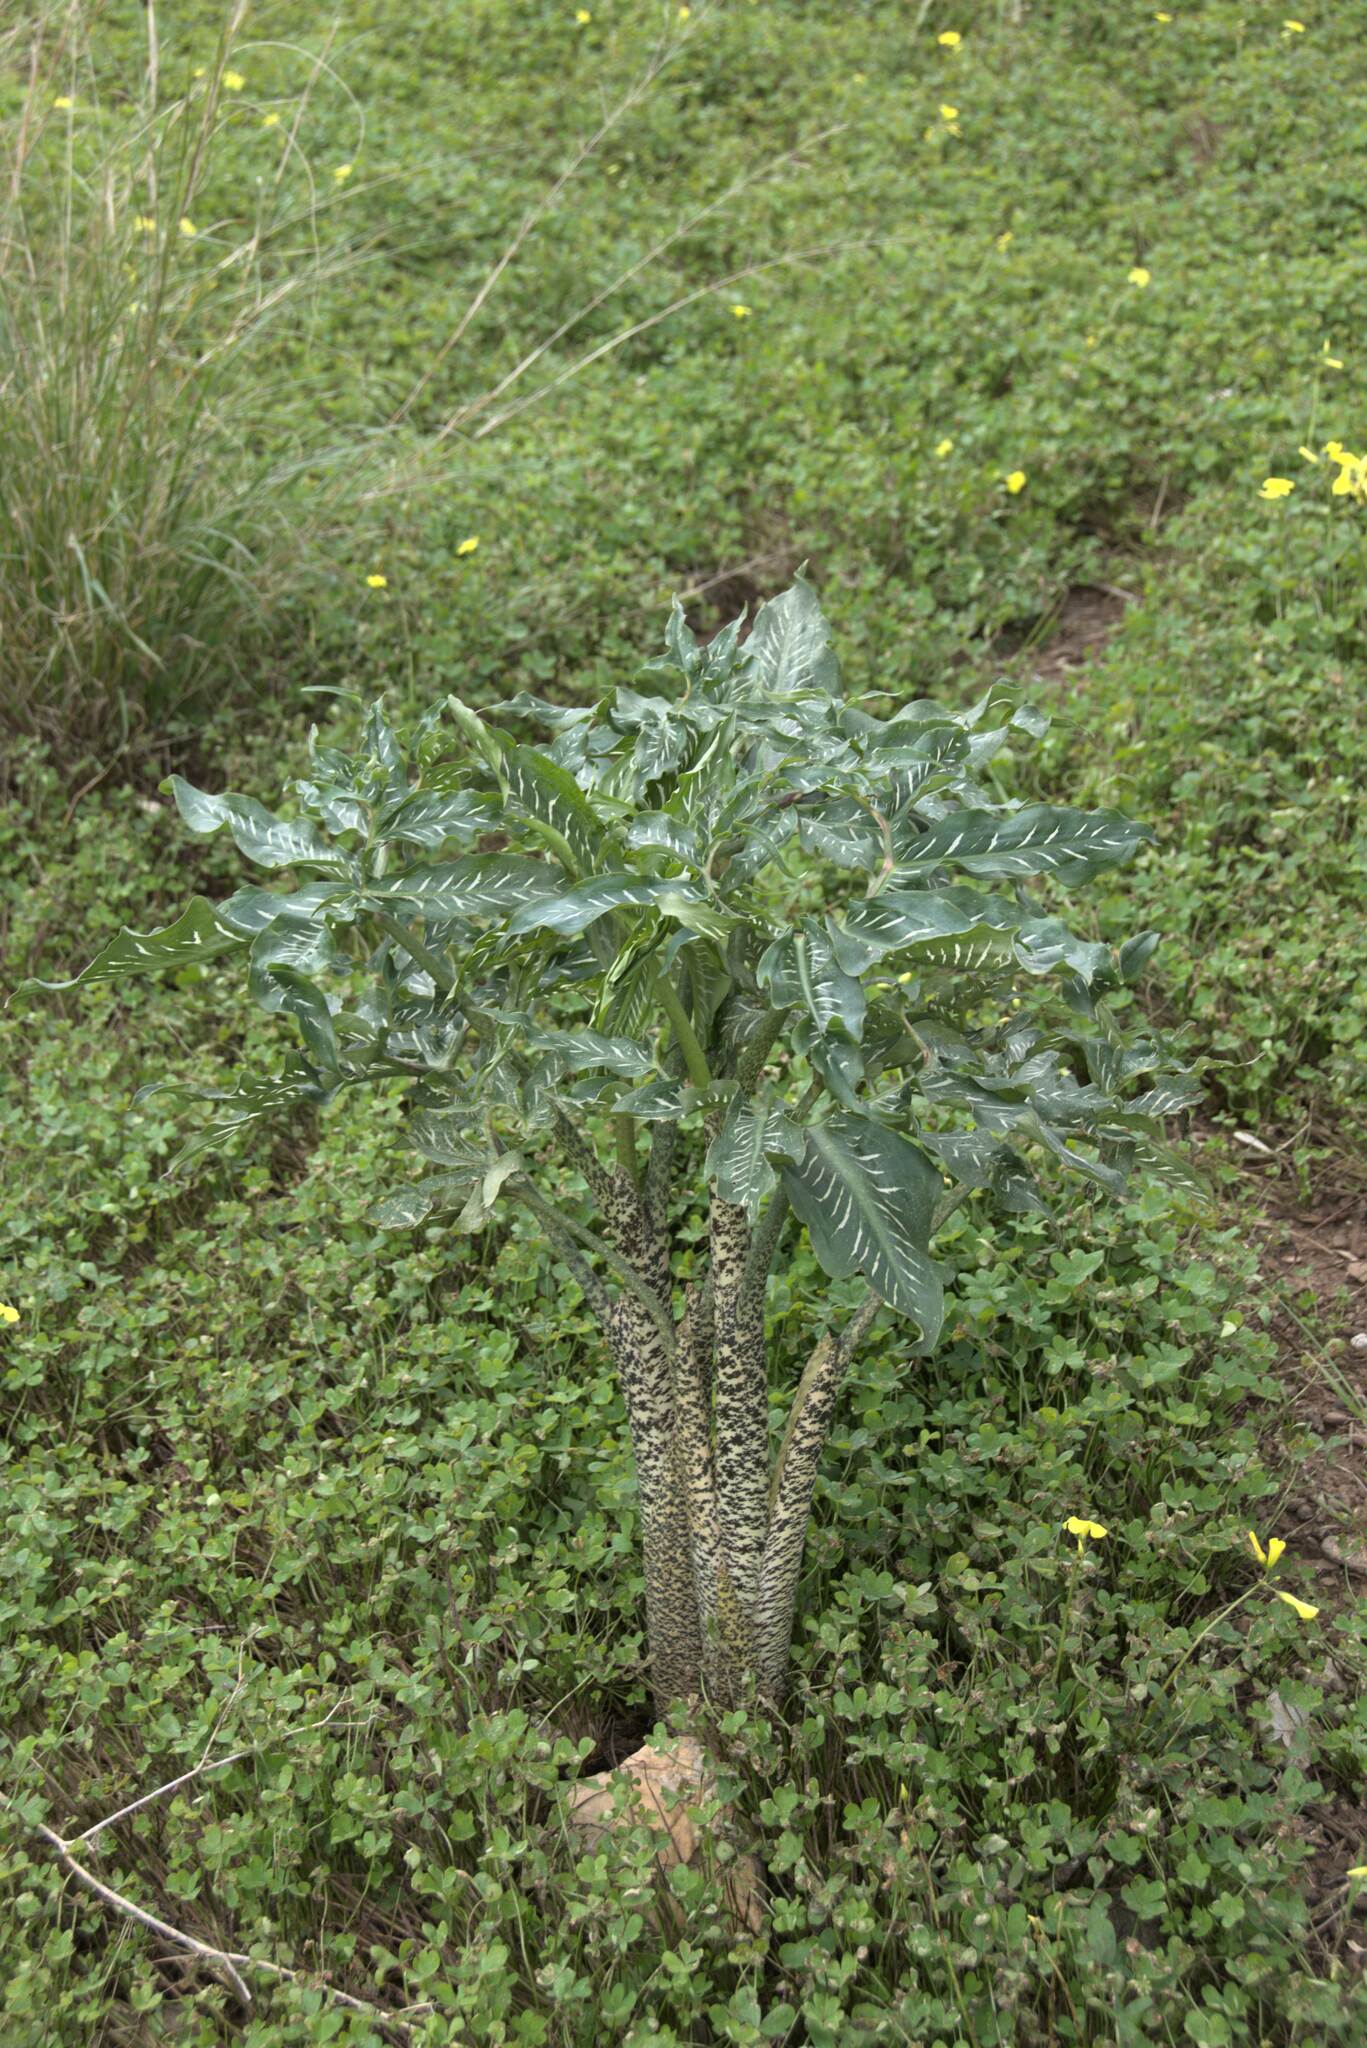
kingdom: Plantae
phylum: Tracheophyta
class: Liliopsida
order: Alismatales
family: Araceae
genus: Dracunculus
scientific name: Dracunculus vulgaris
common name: Dragon arum
